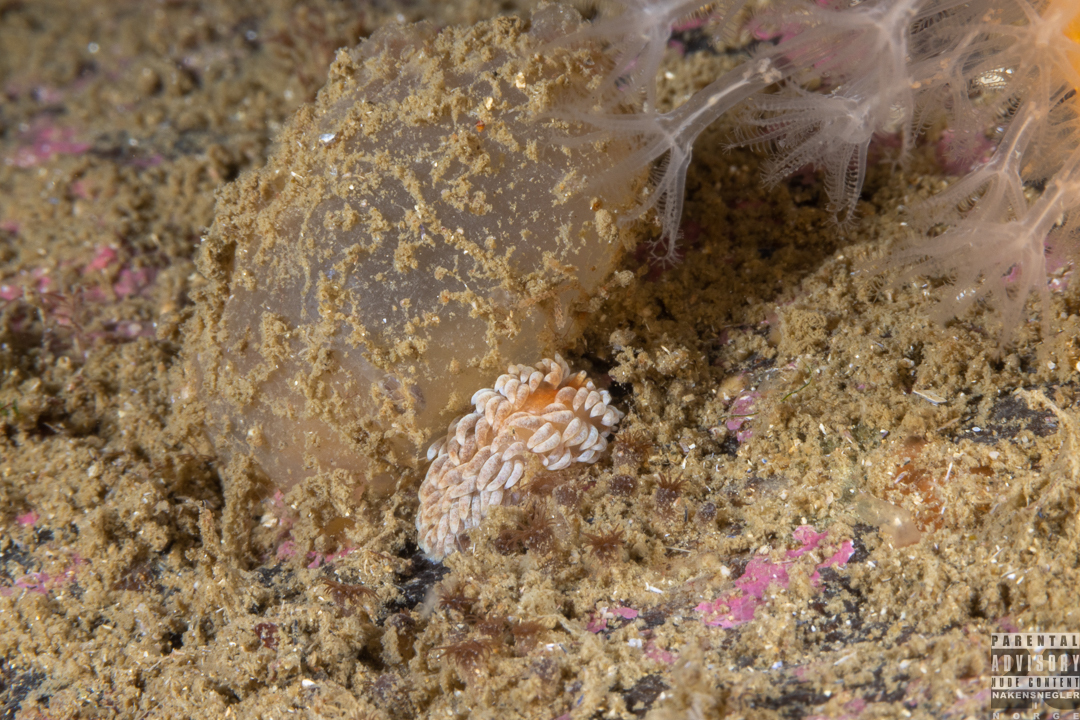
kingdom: Animalia
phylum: Mollusca
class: Gastropoda
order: Nudibranchia
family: Aeolidiidae
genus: Aeolidiella
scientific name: Aeolidiella glauca
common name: Orange-brown aeolid
